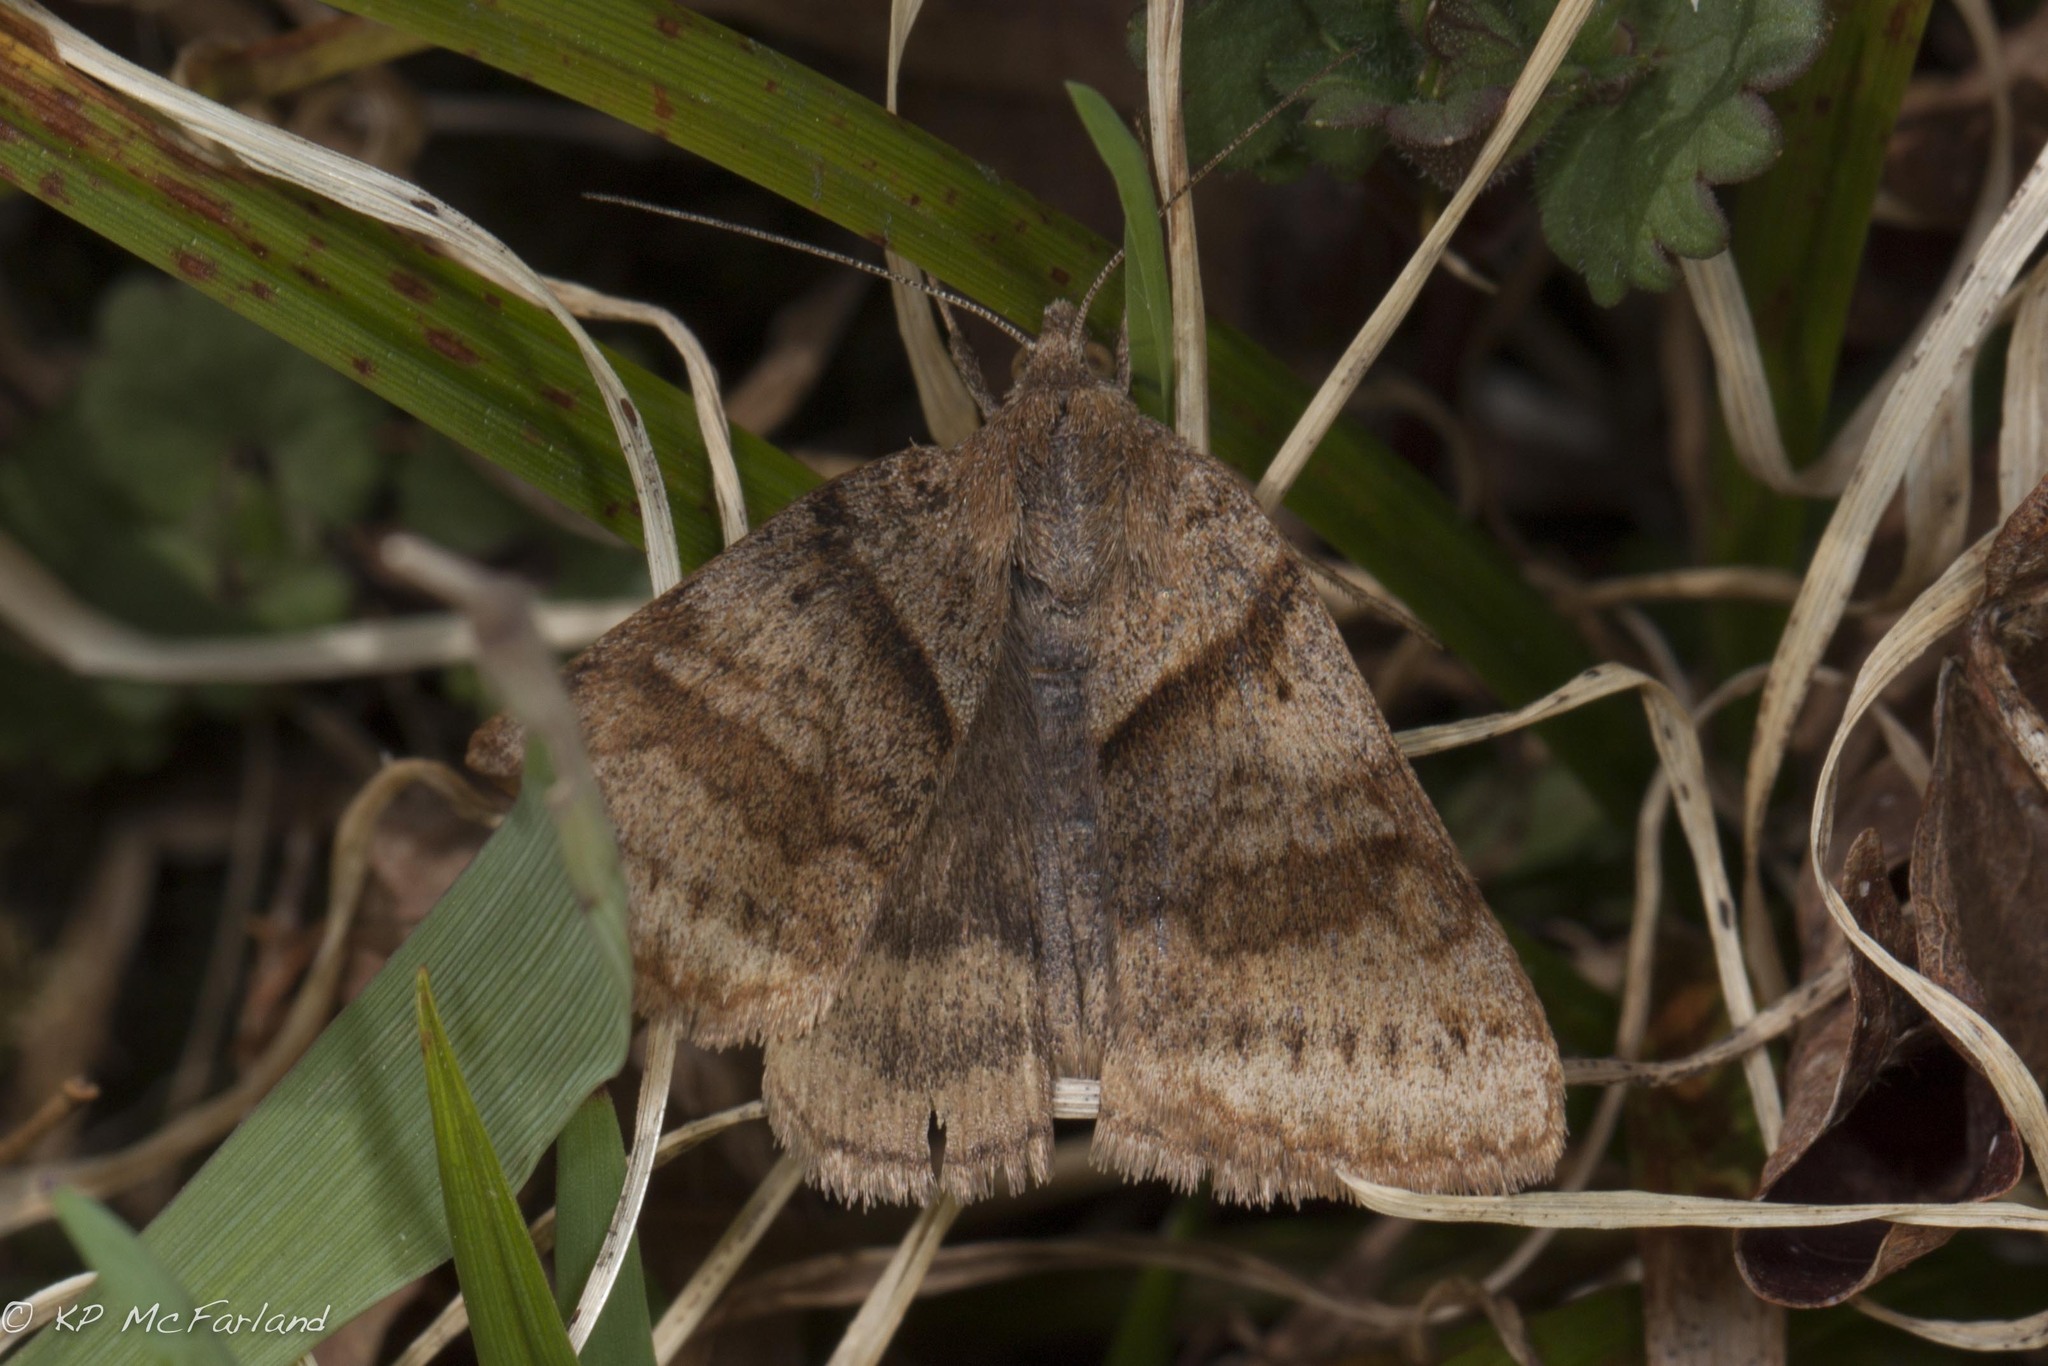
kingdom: Animalia
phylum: Arthropoda
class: Insecta
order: Lepidoptera
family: Erebidae
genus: Caenurgina
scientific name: Caenurgina
